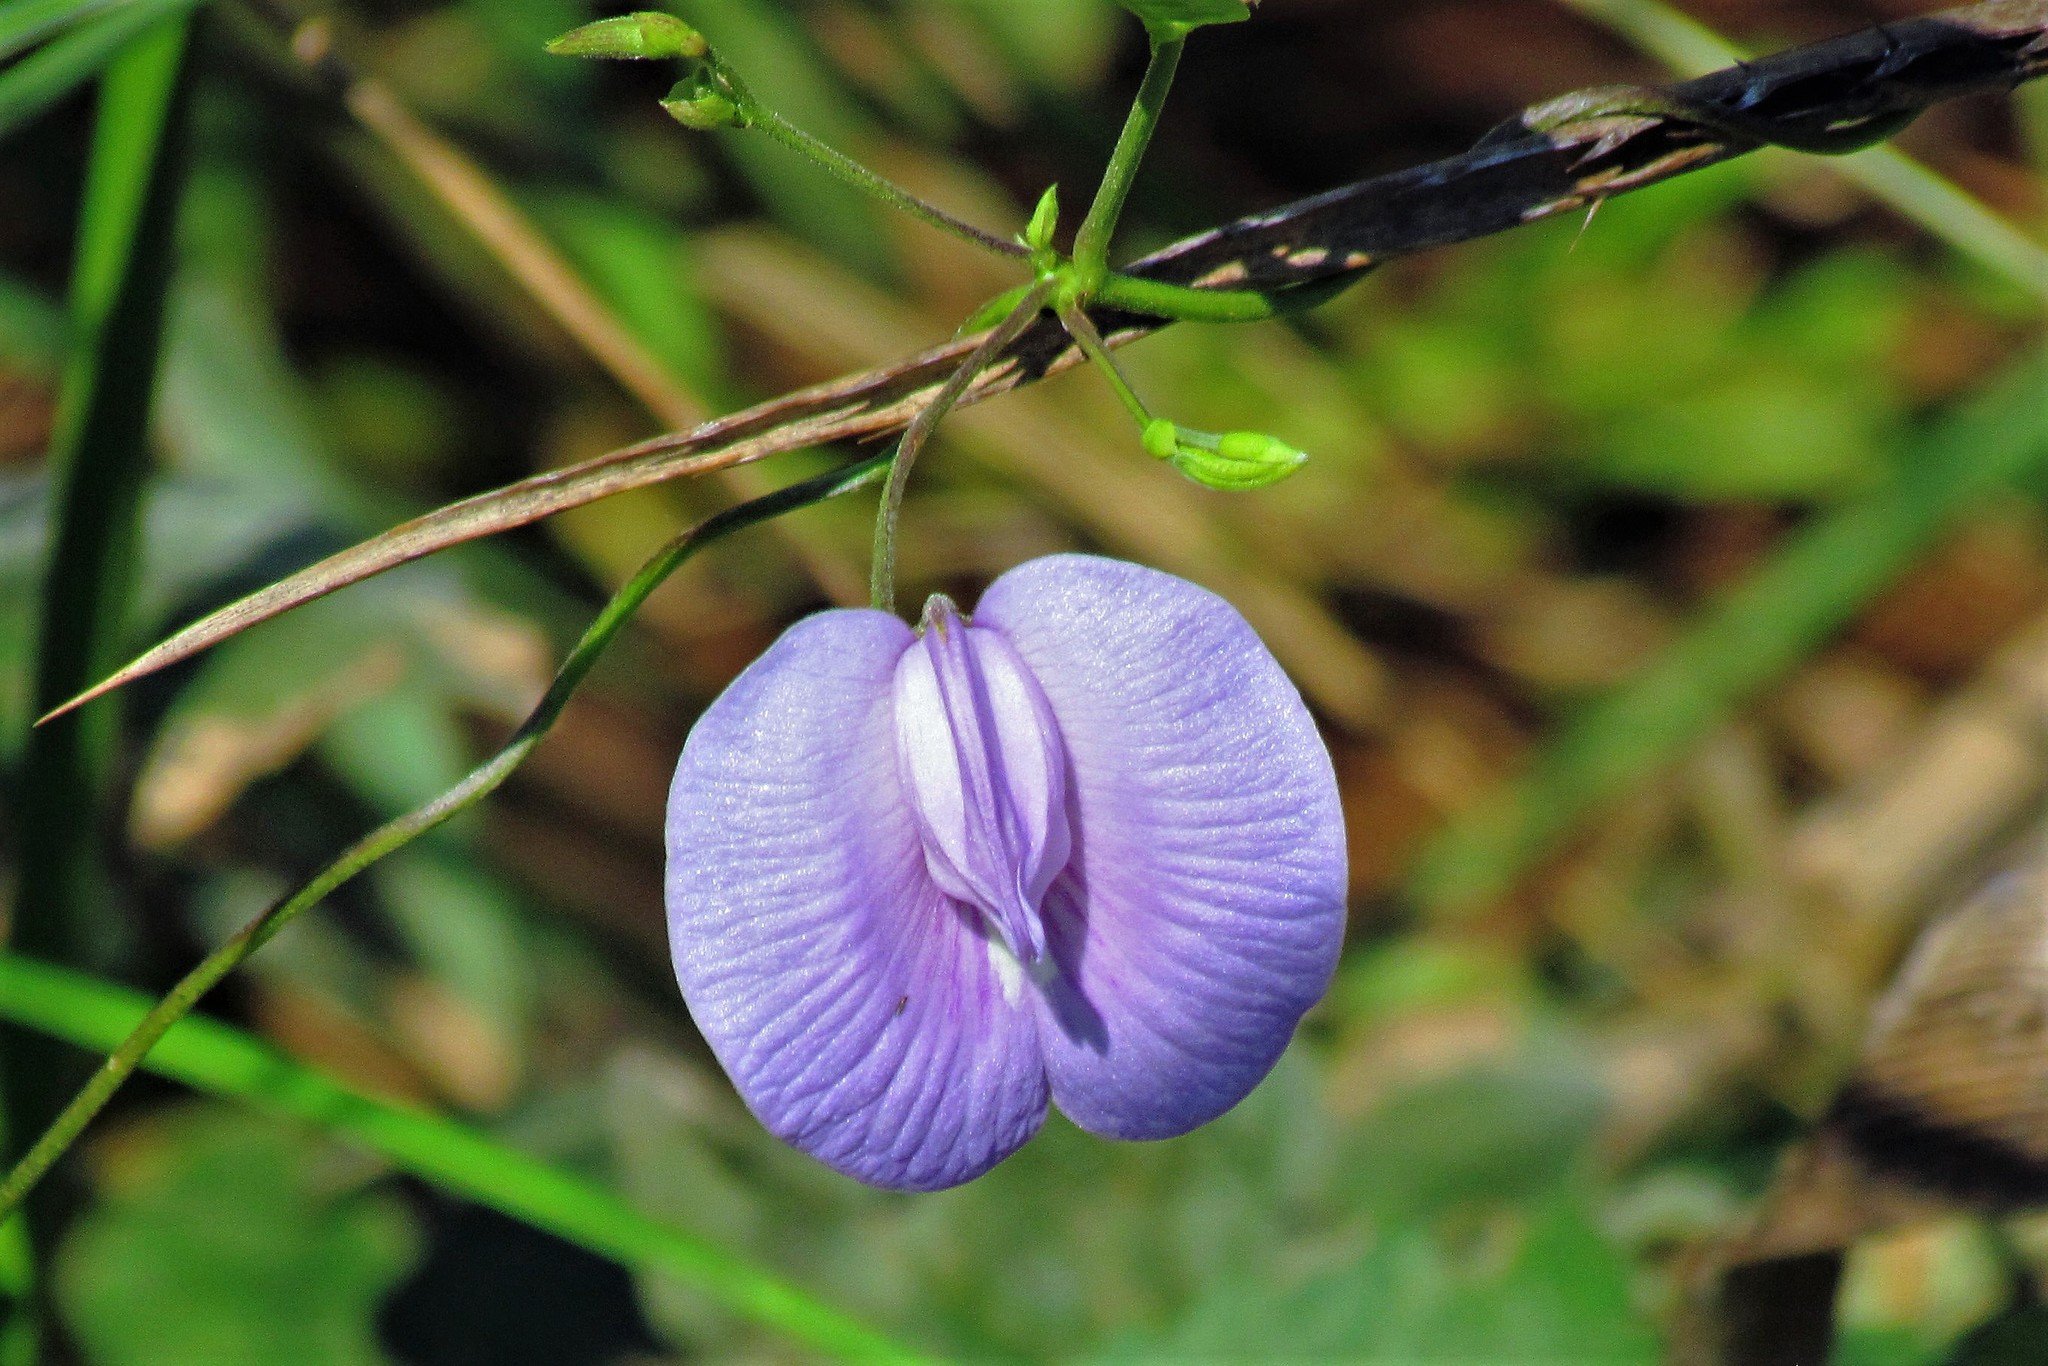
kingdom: Plantae
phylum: Tracheophyta
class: Magnoliopsida
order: Fabales
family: Fabaceae
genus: Centrosema
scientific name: Centrosema virginianum
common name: Butterfly-pea
